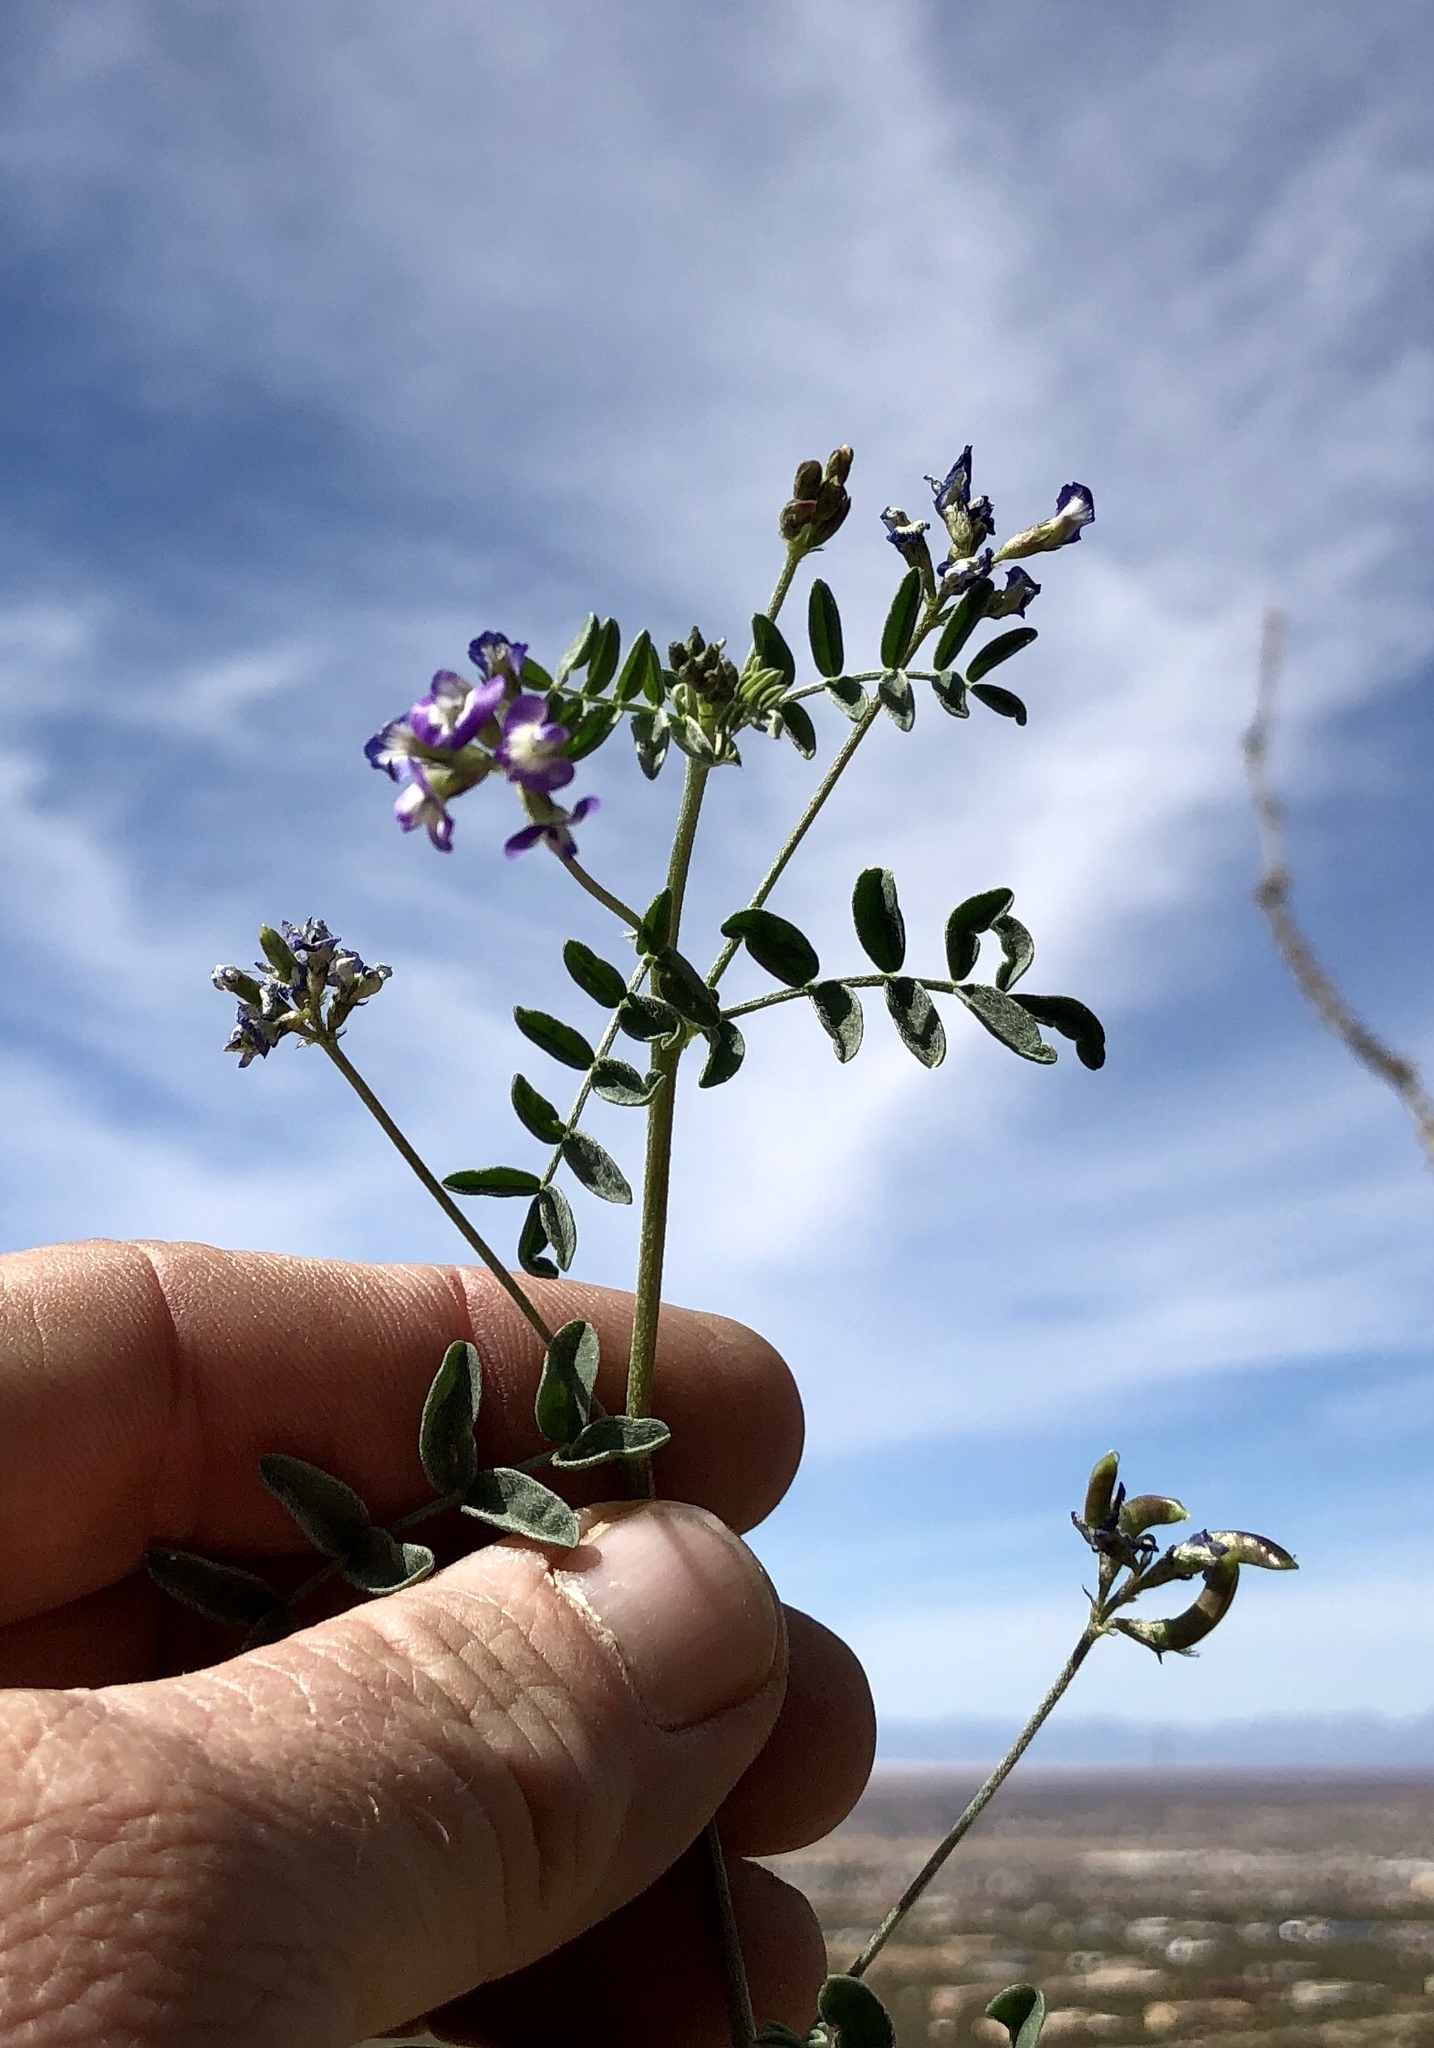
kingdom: Plantae
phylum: Tracheophyta
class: Magnoliopsida
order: Fabales
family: Fabaceae
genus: Astragalus
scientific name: Astragalus nuttallianus
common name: Smallflowered milkvetch
